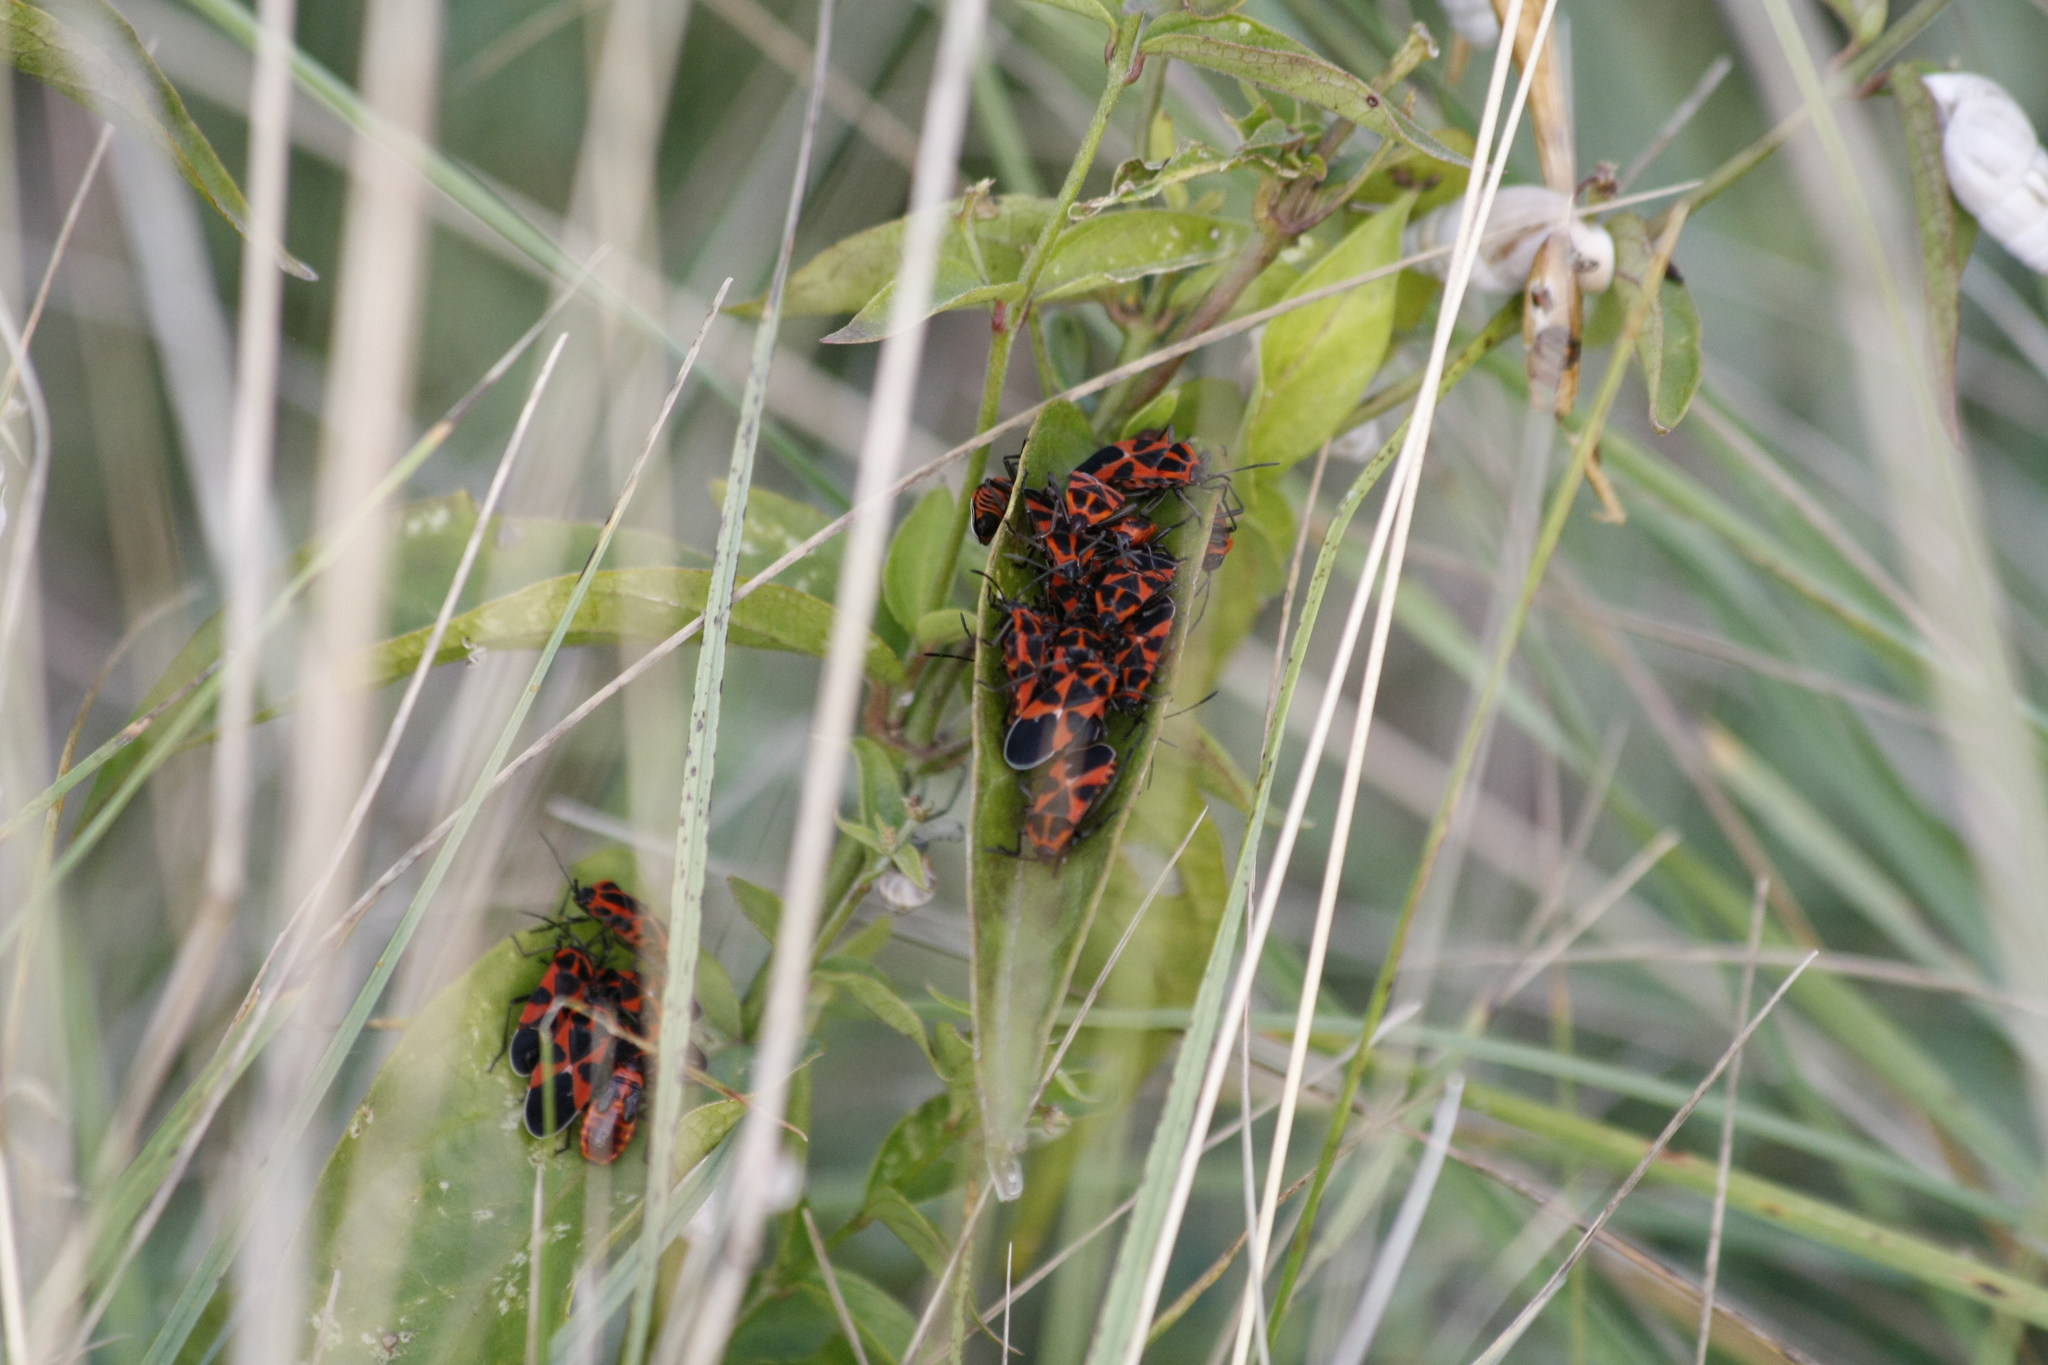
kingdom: Animalia
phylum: Arthropoda
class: Insecta
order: Hemiptera
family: Lygaeidae
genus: Tropidothorax
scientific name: Tropidothorax leucopterus
